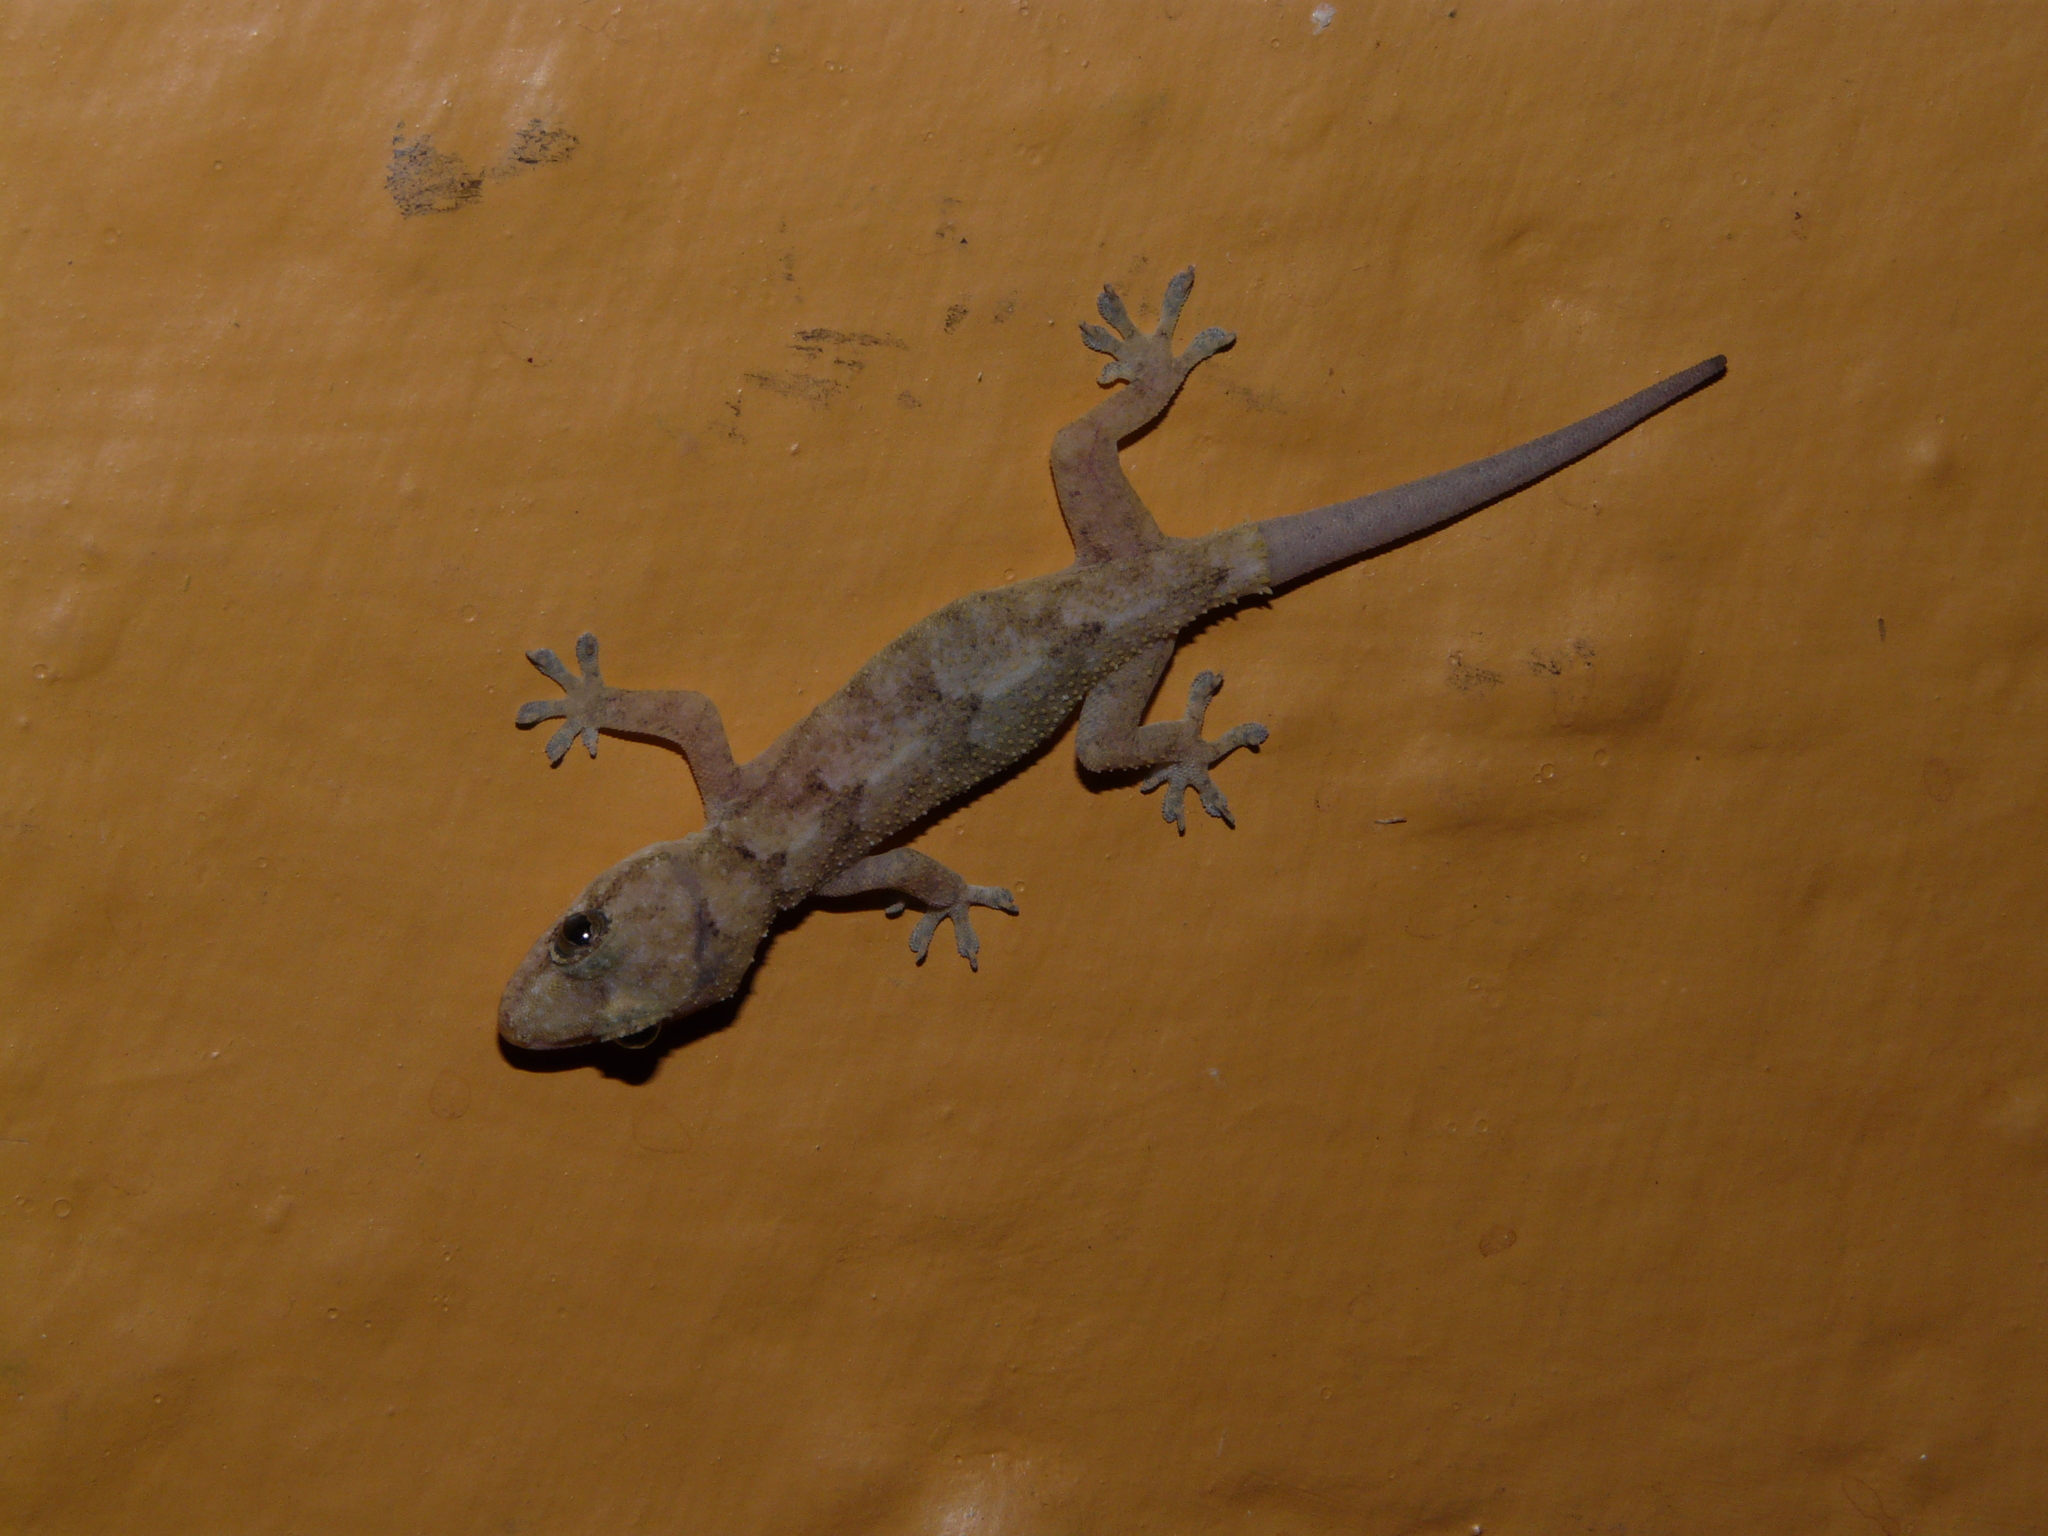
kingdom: Animalia
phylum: Chordata
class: Squamata
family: Gekkonidae
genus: Hemidactylus
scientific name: Hemidactylus mabouia
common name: House gecko
